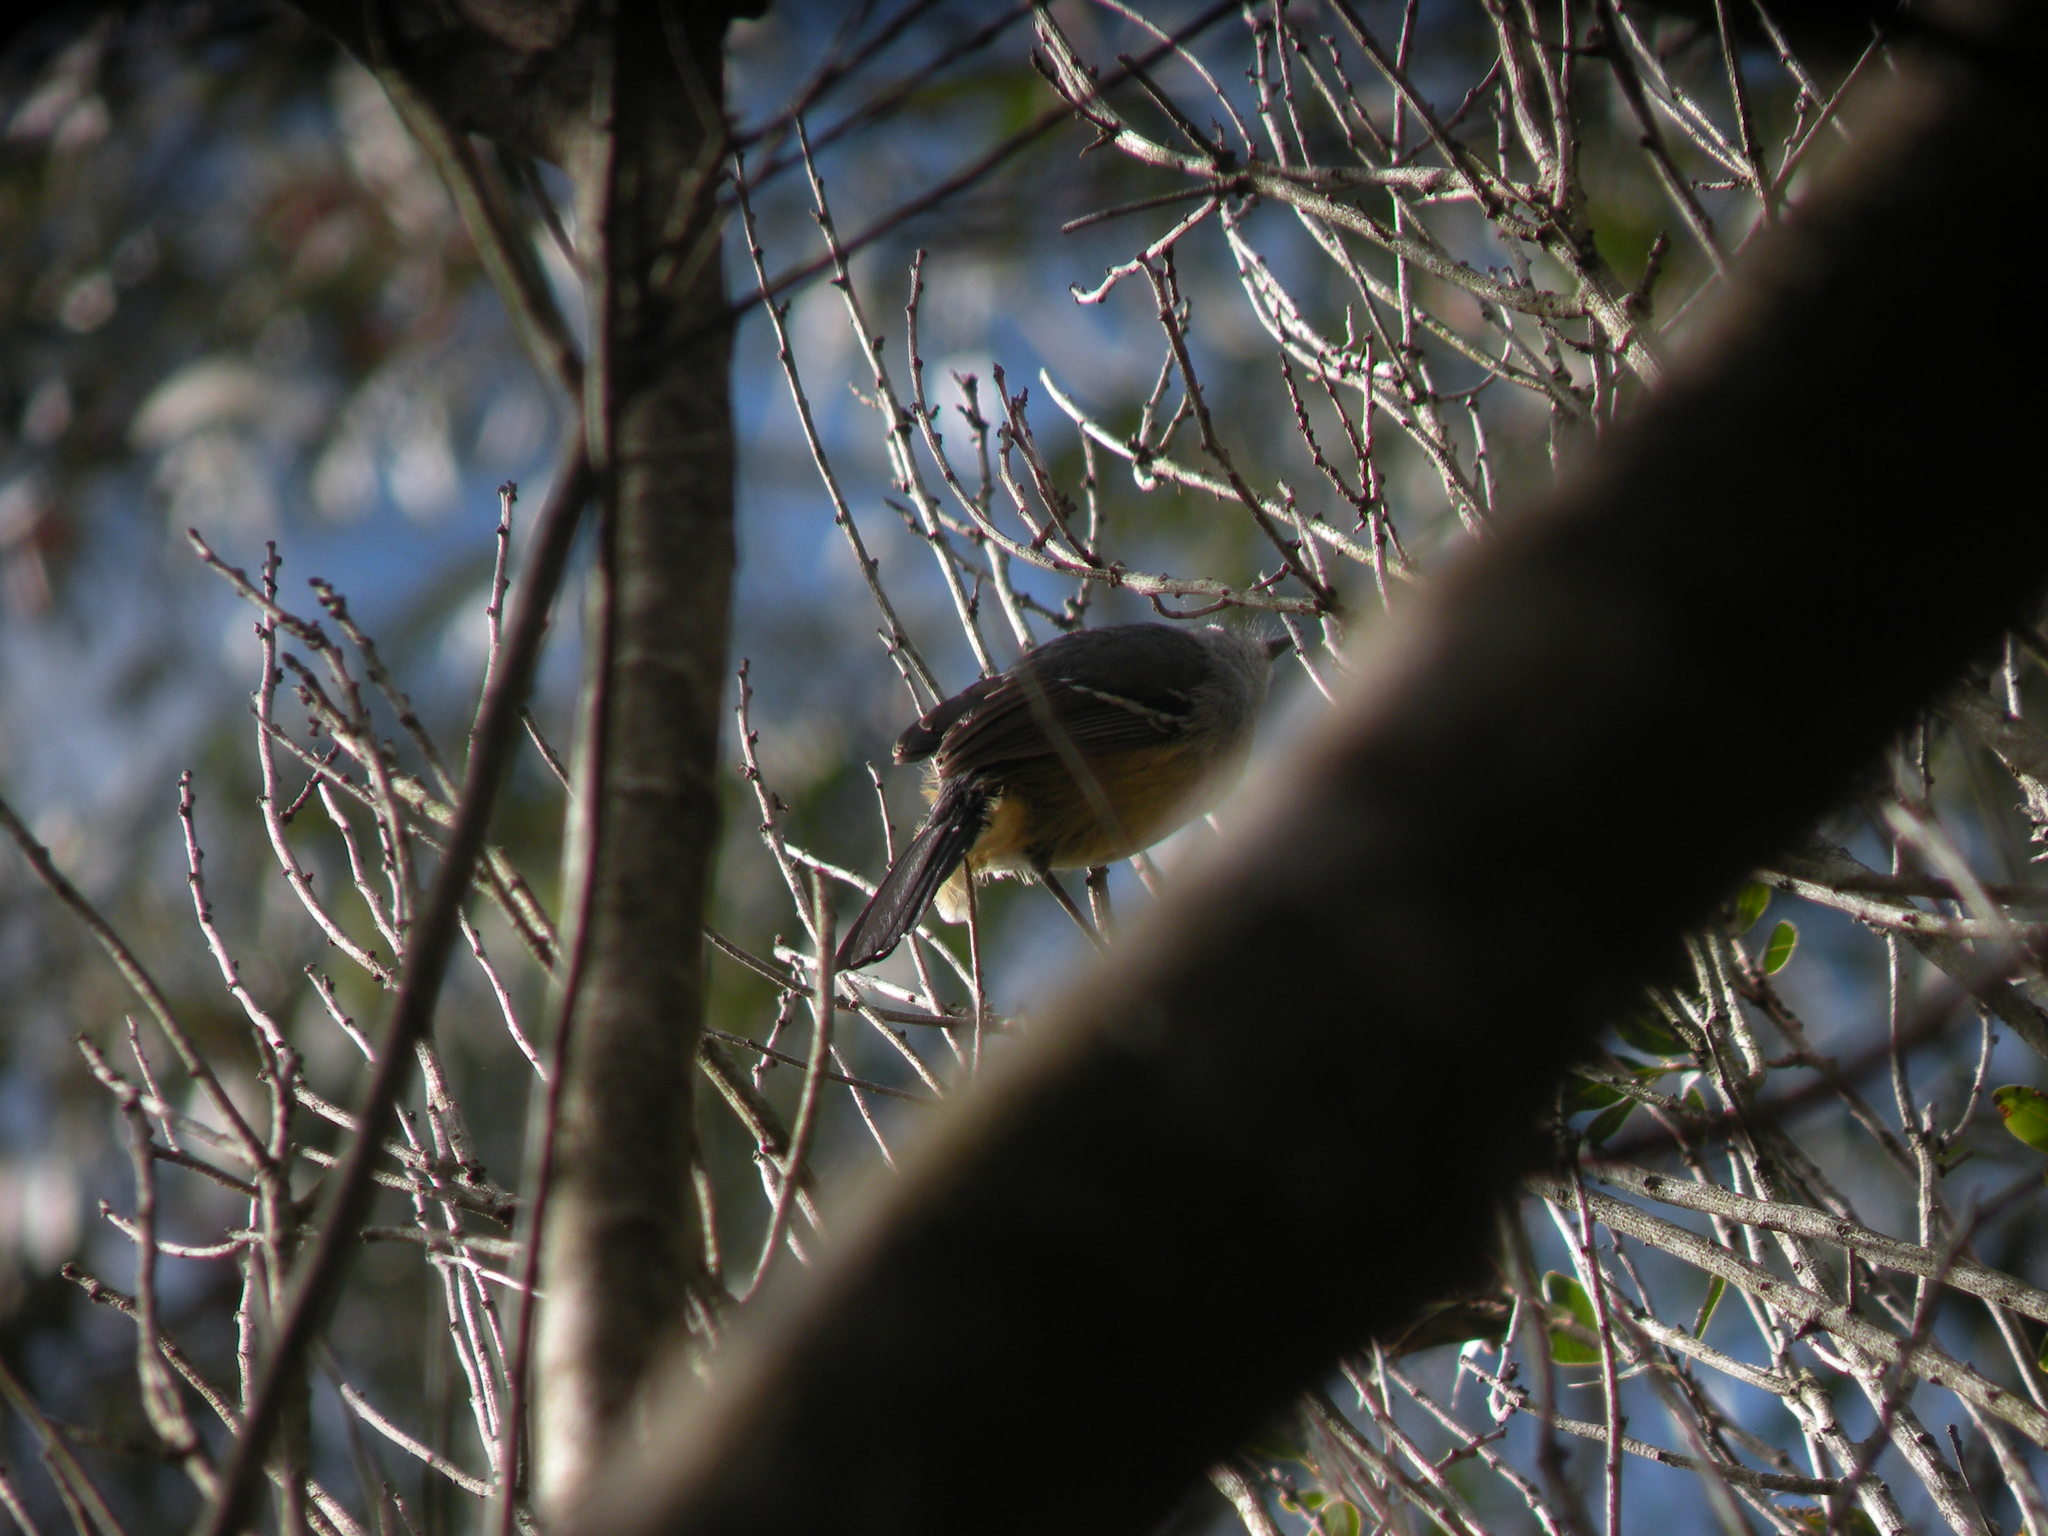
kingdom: Animalia
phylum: Chordata
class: Aves
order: Passeriformes
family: Thamnophilidae
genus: Thamnophilus
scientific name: Thamnophilus caerulescens
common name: Variable antshrike
